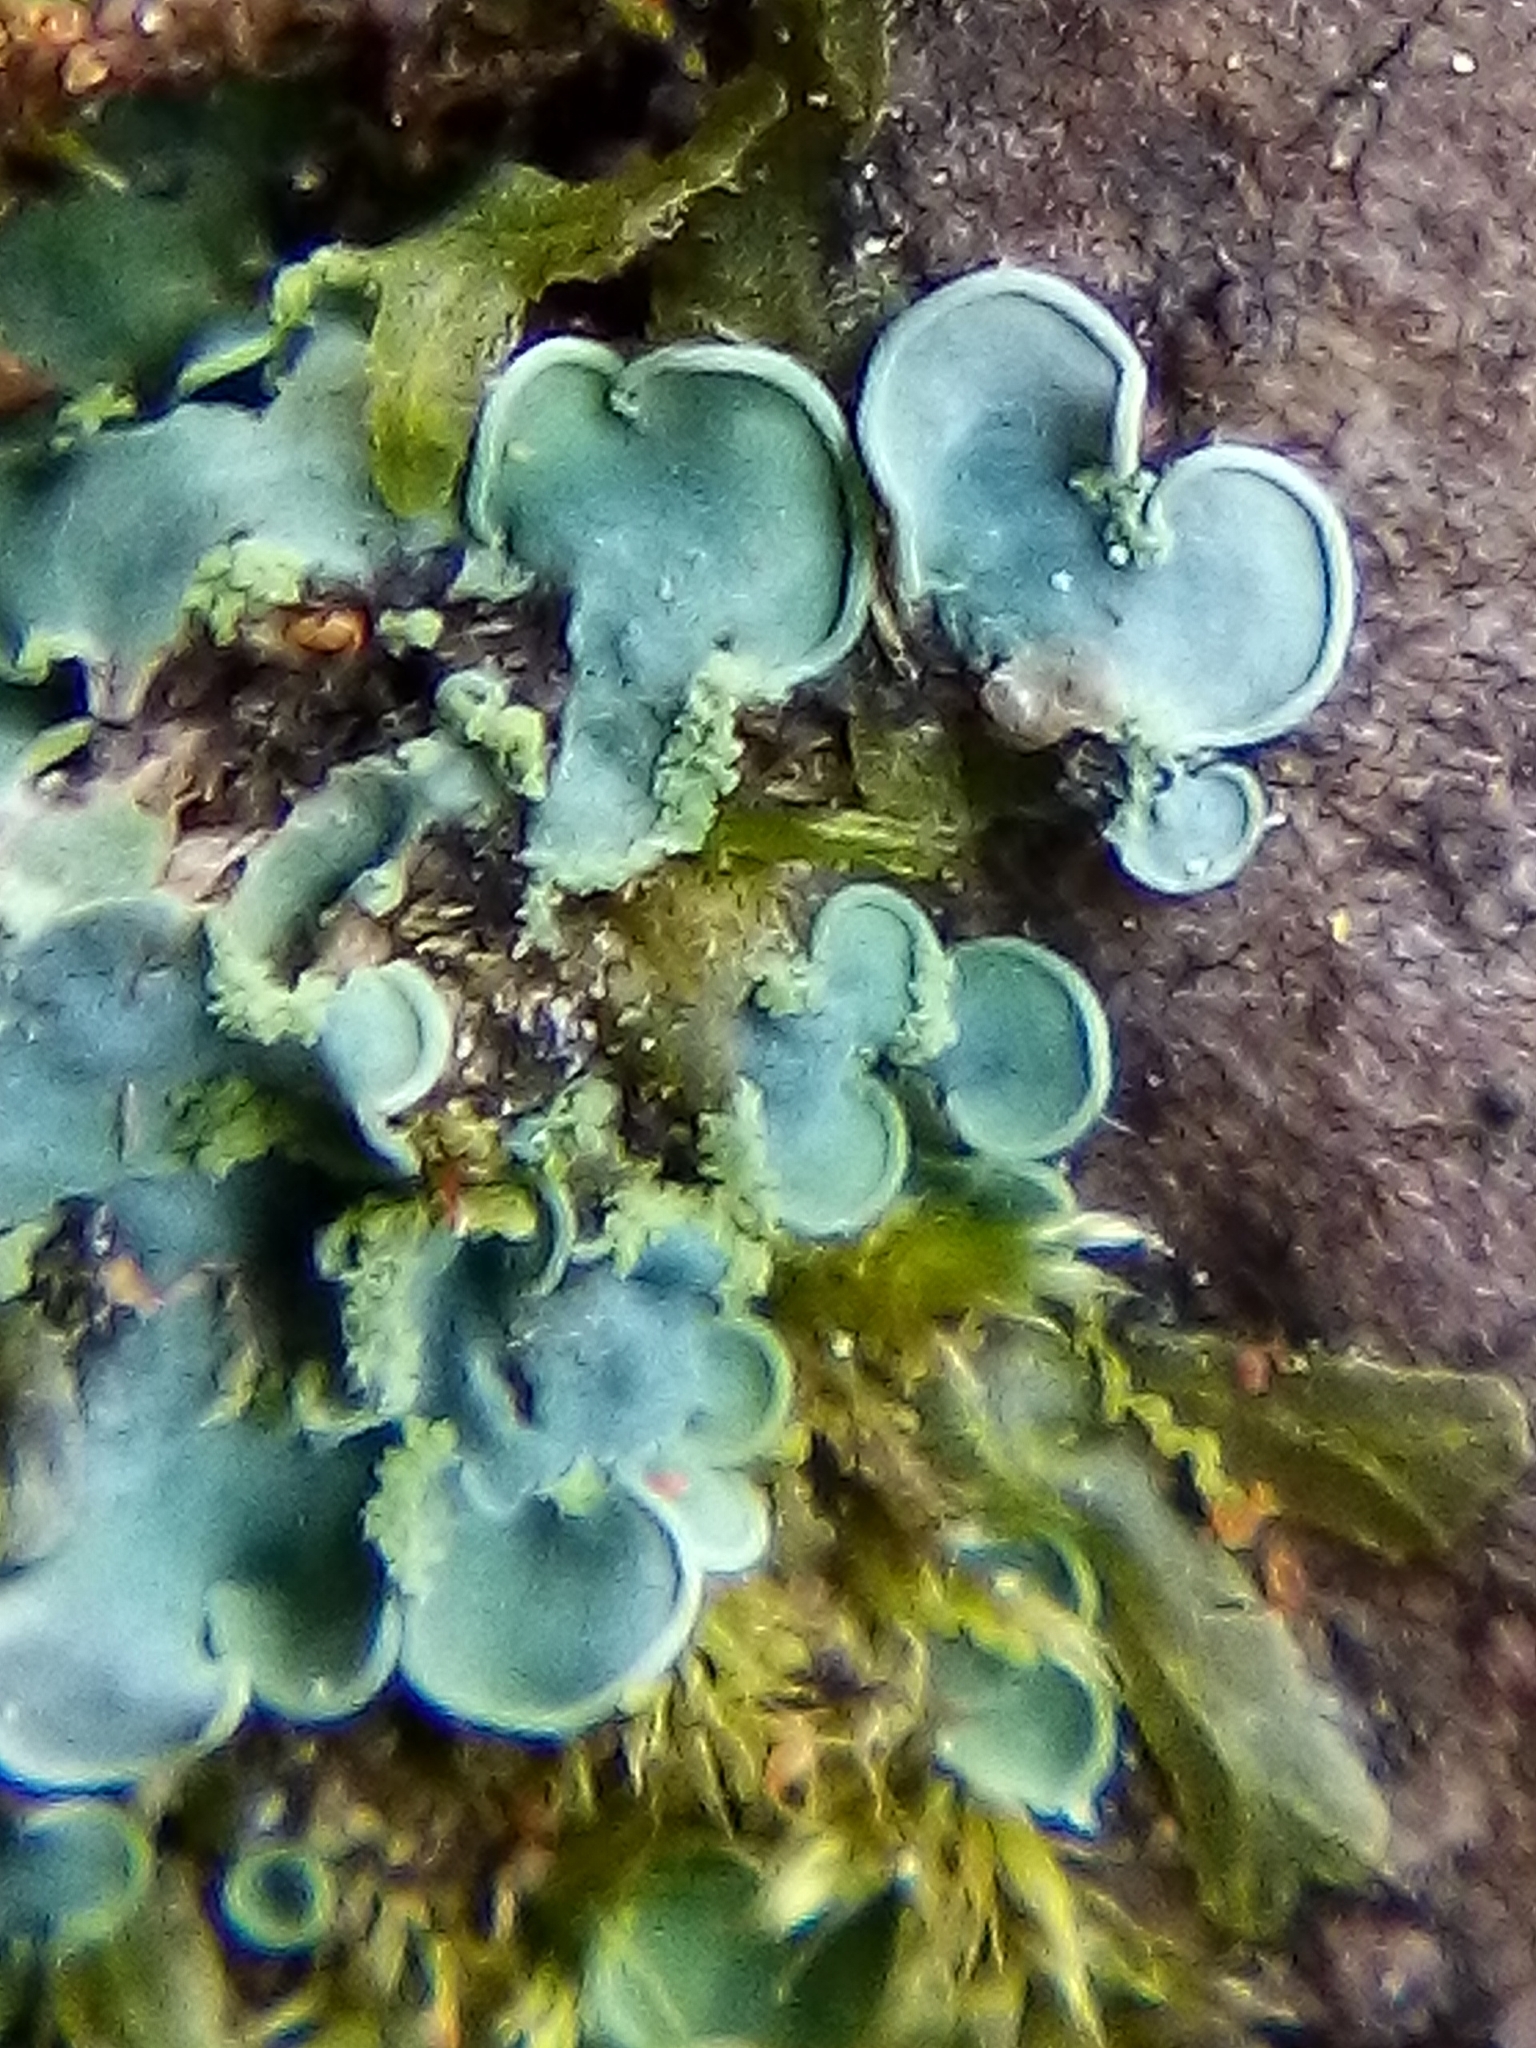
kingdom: Fungi
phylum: Ascomycota
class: Eurotiomycetes
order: Verrucariales
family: Verrucariaceae
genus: Normandina
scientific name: Normandina pulchella
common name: Elf ears lichen
